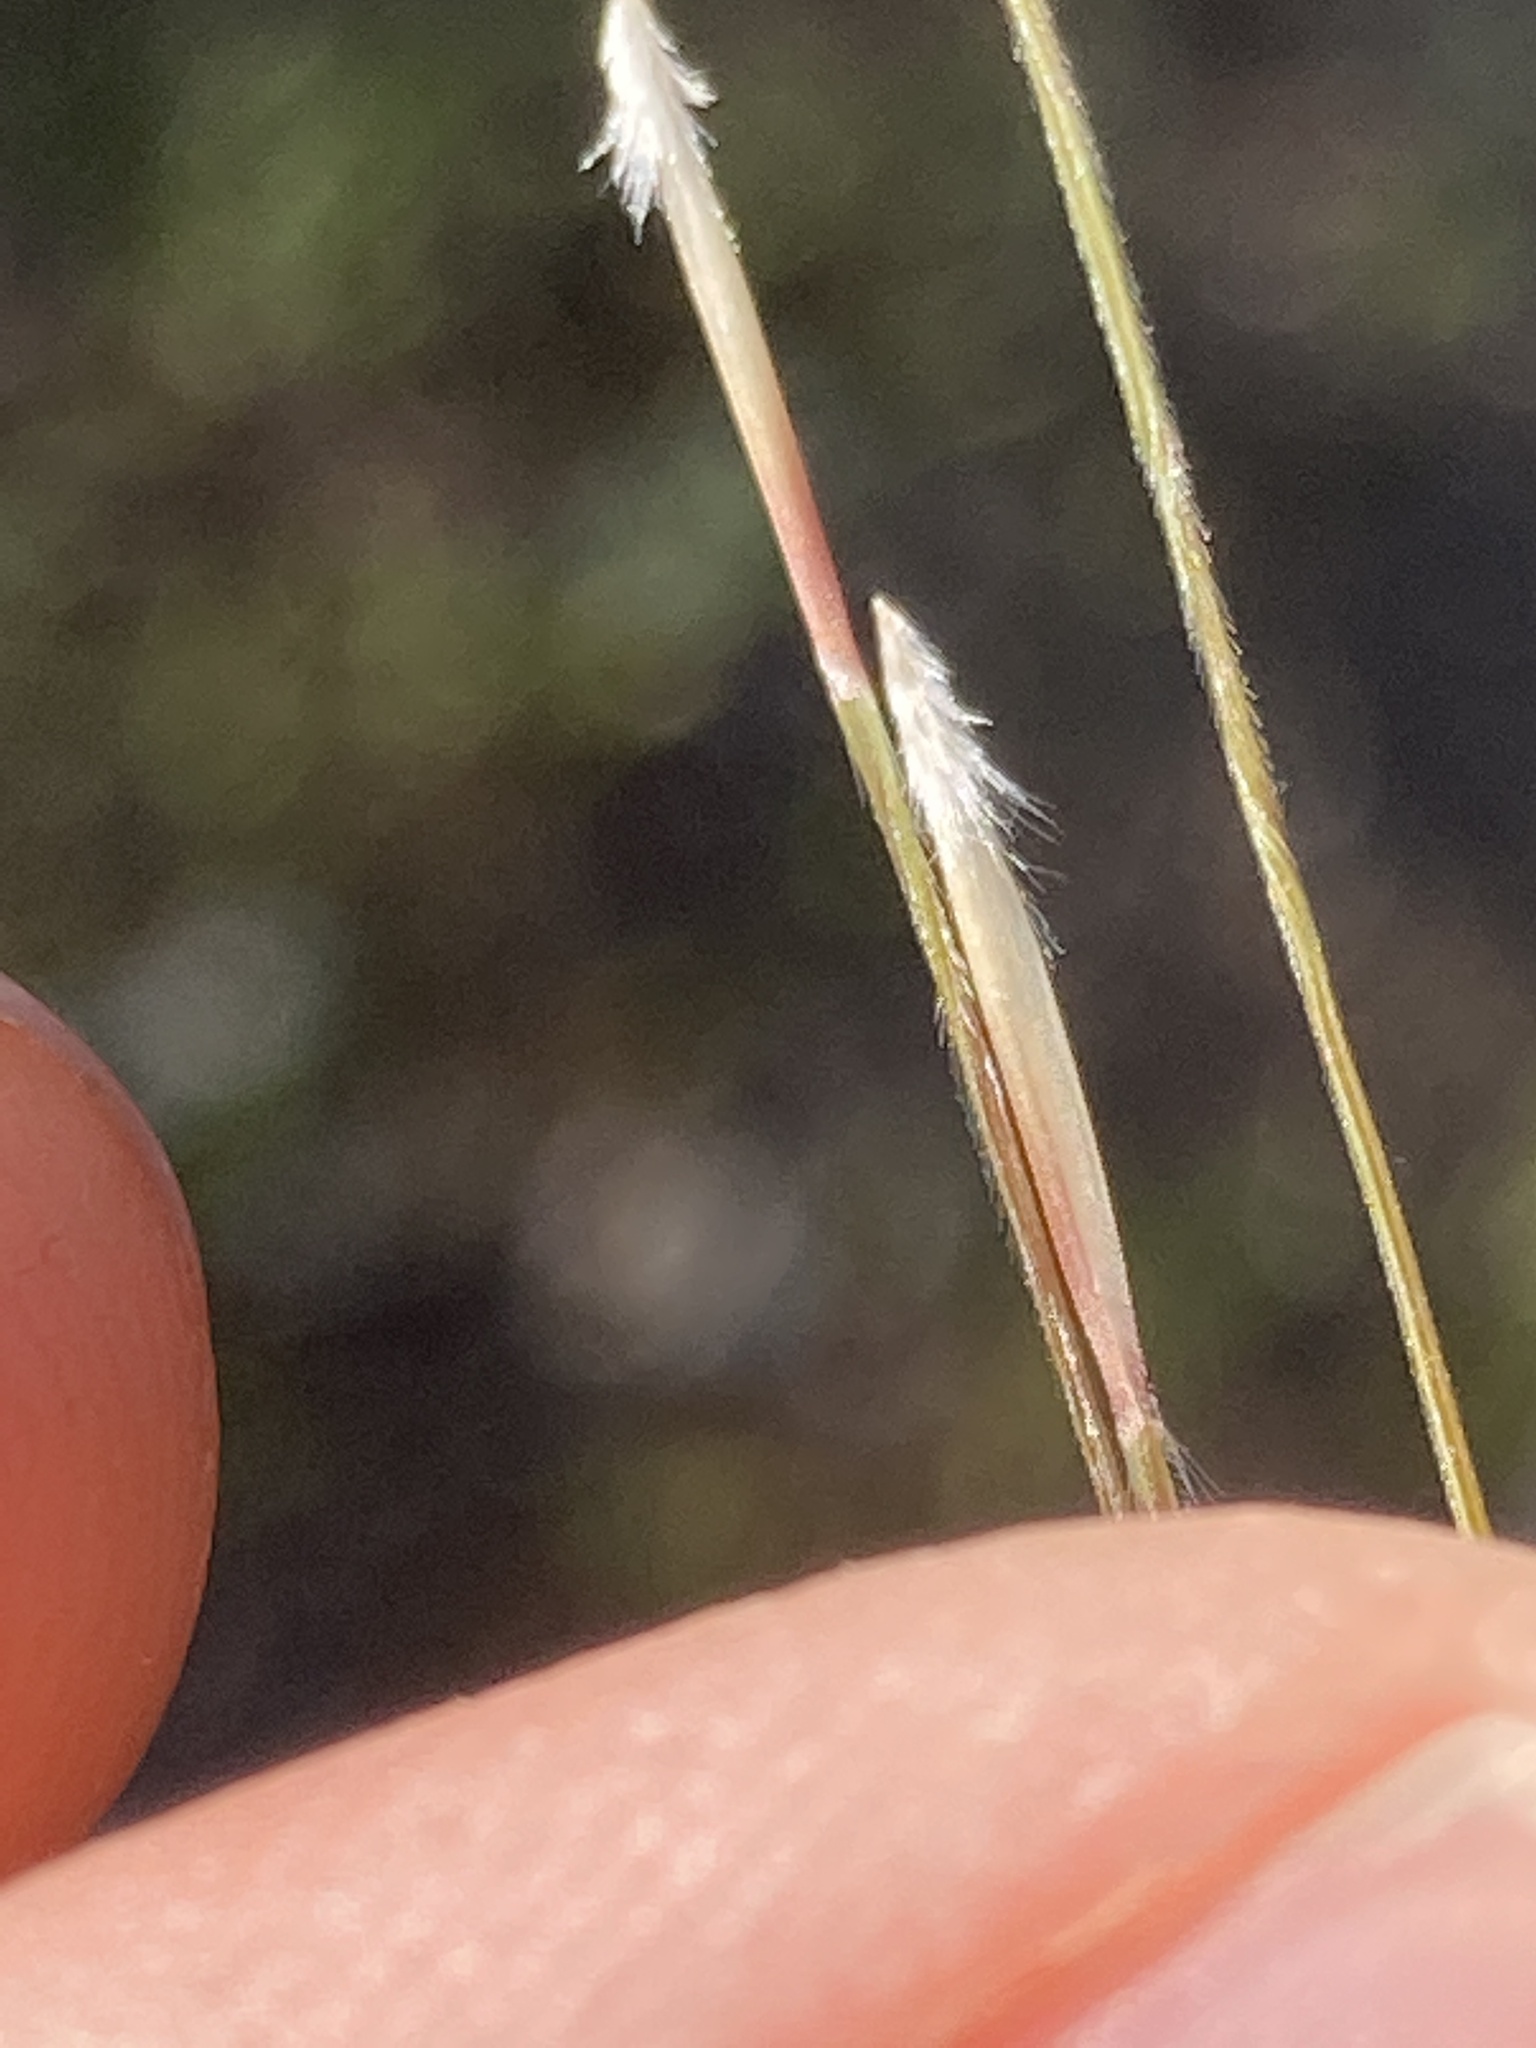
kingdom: Plantae
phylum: Tracheophyta
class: Liliopsida
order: Poales
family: Poaceae
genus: Nassella
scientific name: Nassella cernua
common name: Nodding needlegrass
